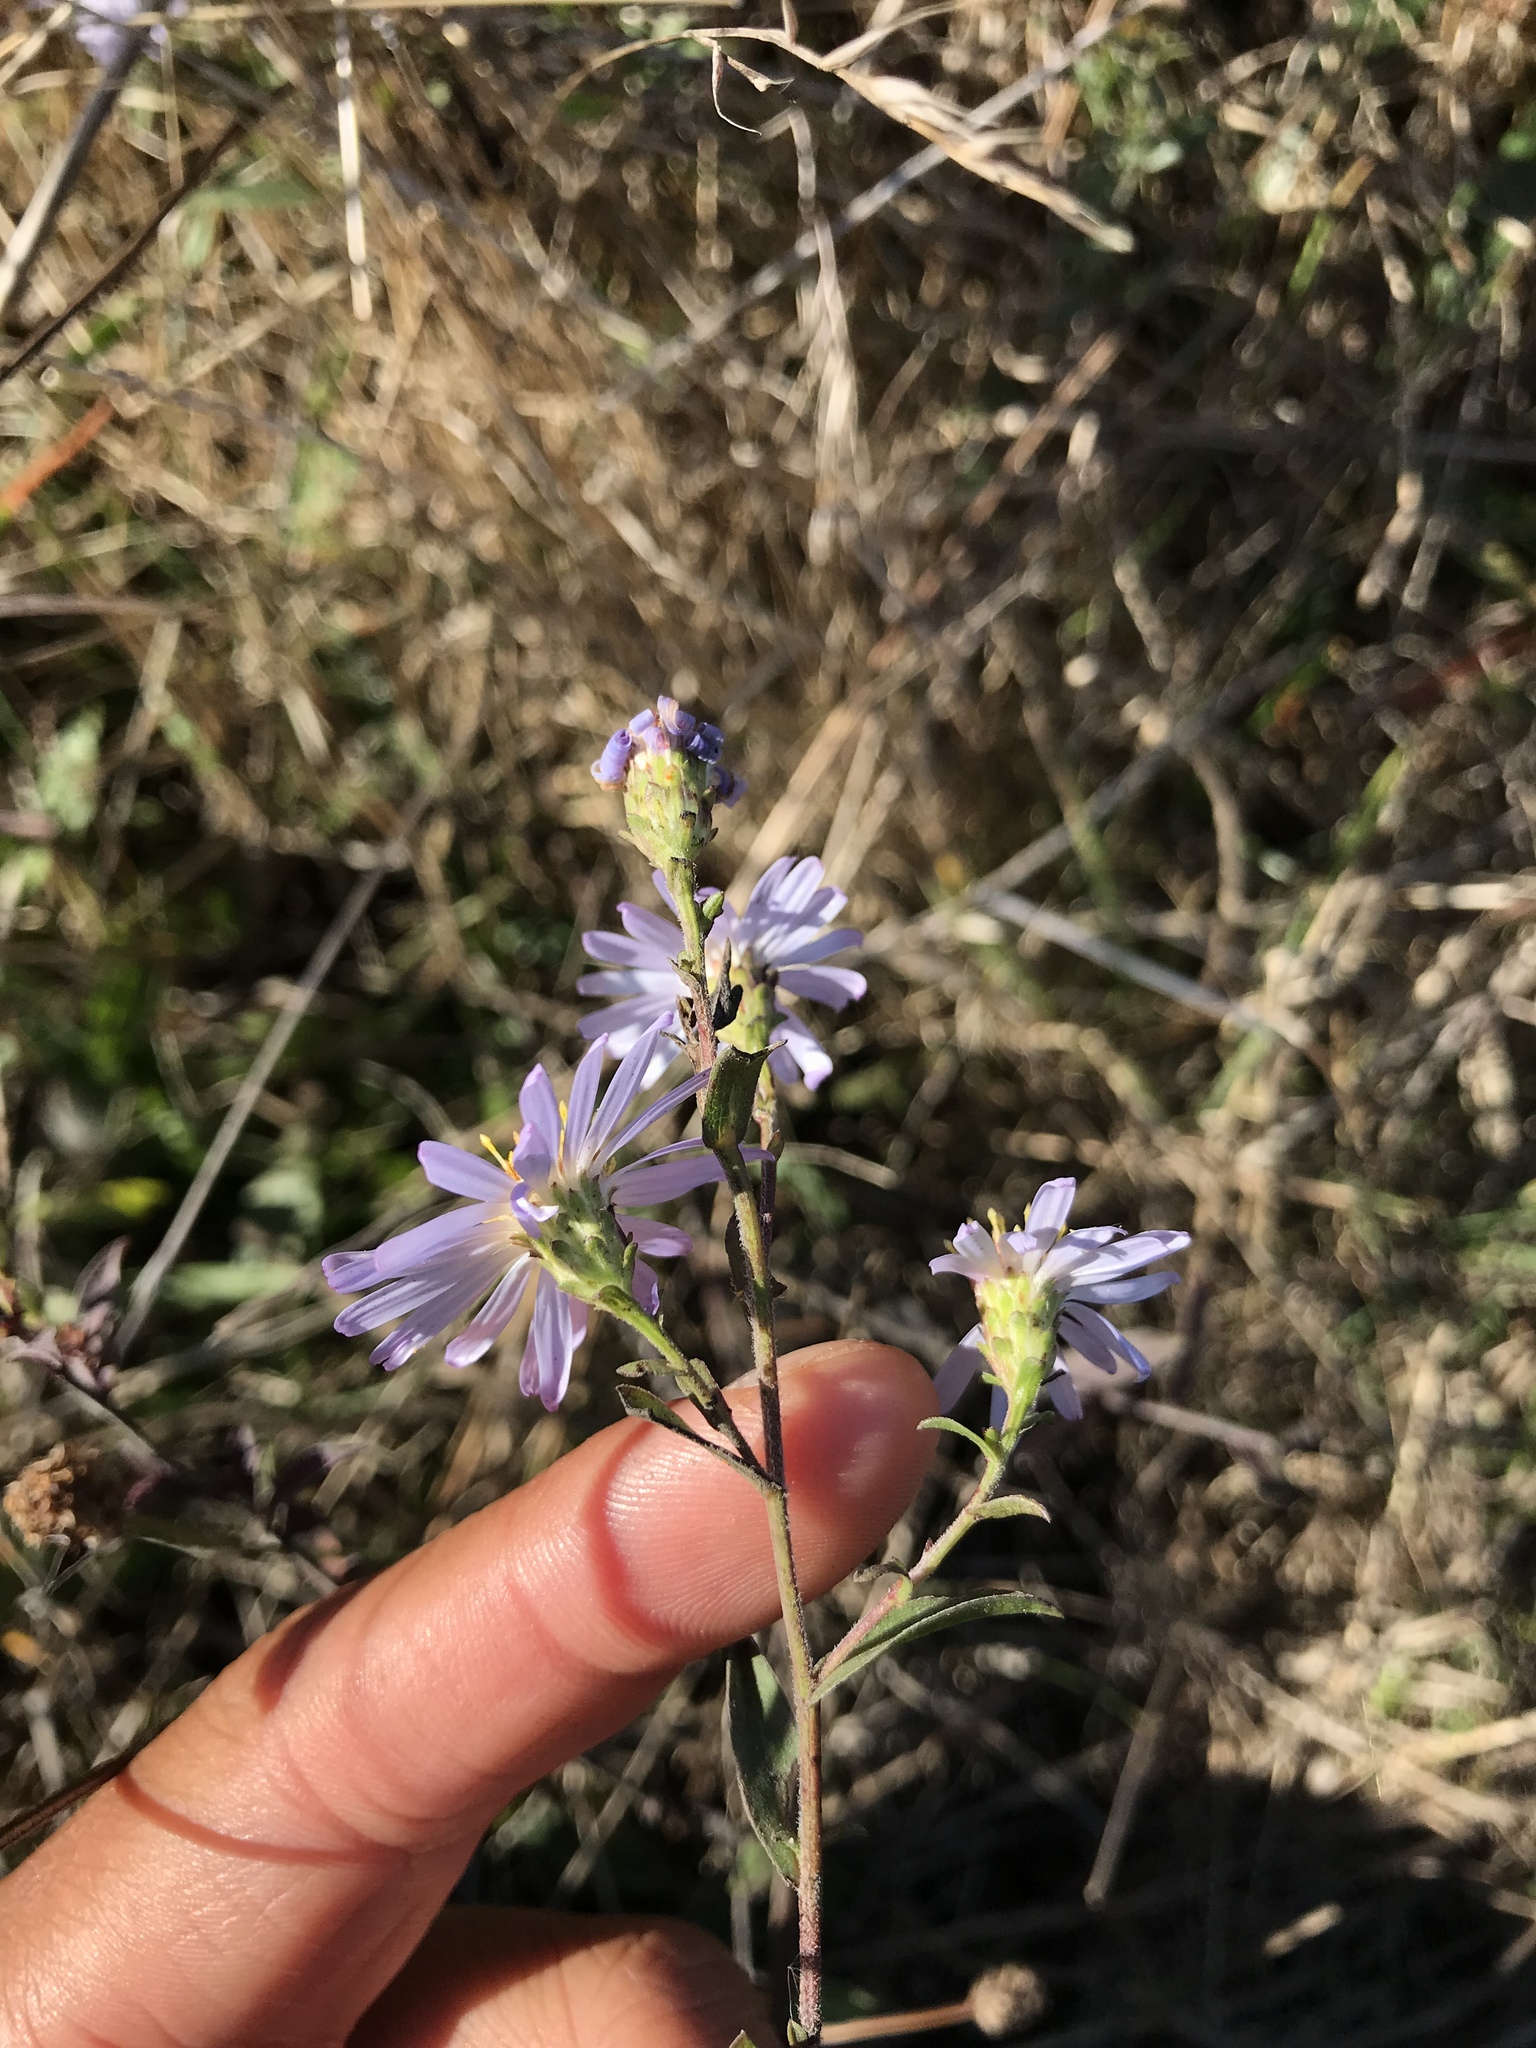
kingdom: Plantae
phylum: Tracheophyta
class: Magnoliopsida
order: Asterales
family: Asteraceae
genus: Symphyotrichum
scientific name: Symphyotrichum chilense
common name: Pacific aster
